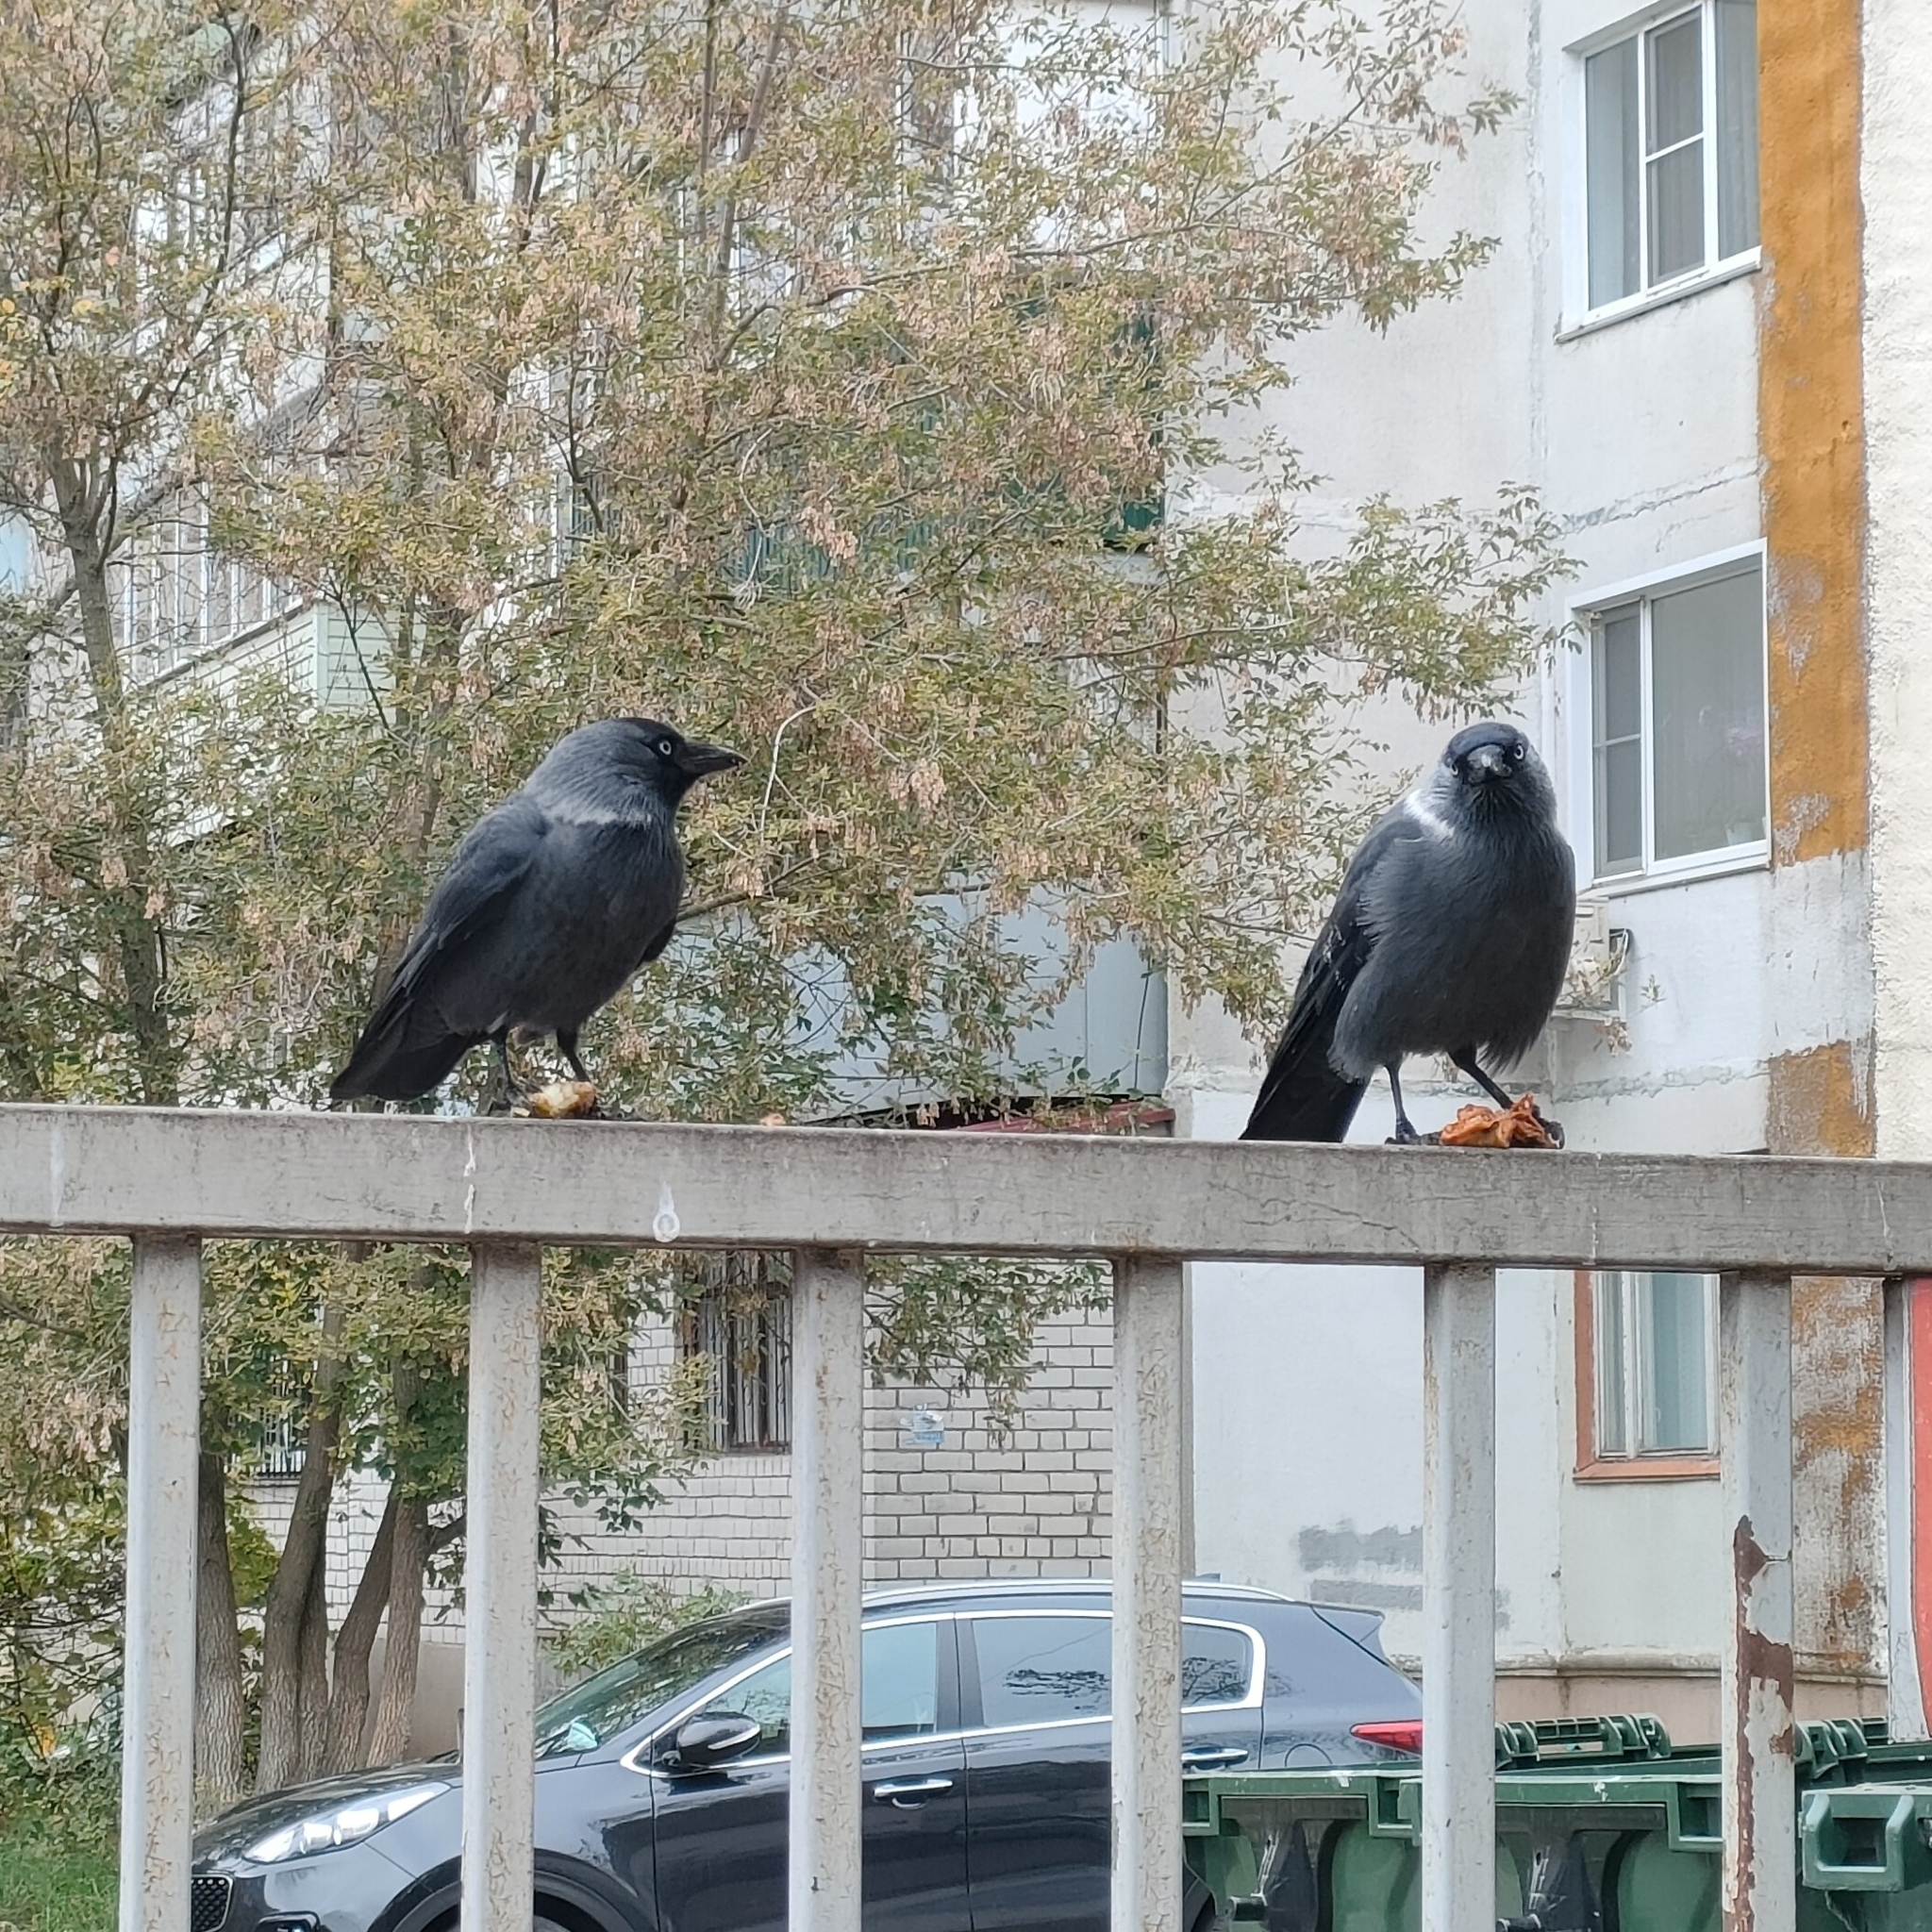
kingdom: Animalia
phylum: Chordata
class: Aves
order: Passeriformes
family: Corvidae
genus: Coloeus
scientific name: Coloeus monedula
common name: Western jackdaw
